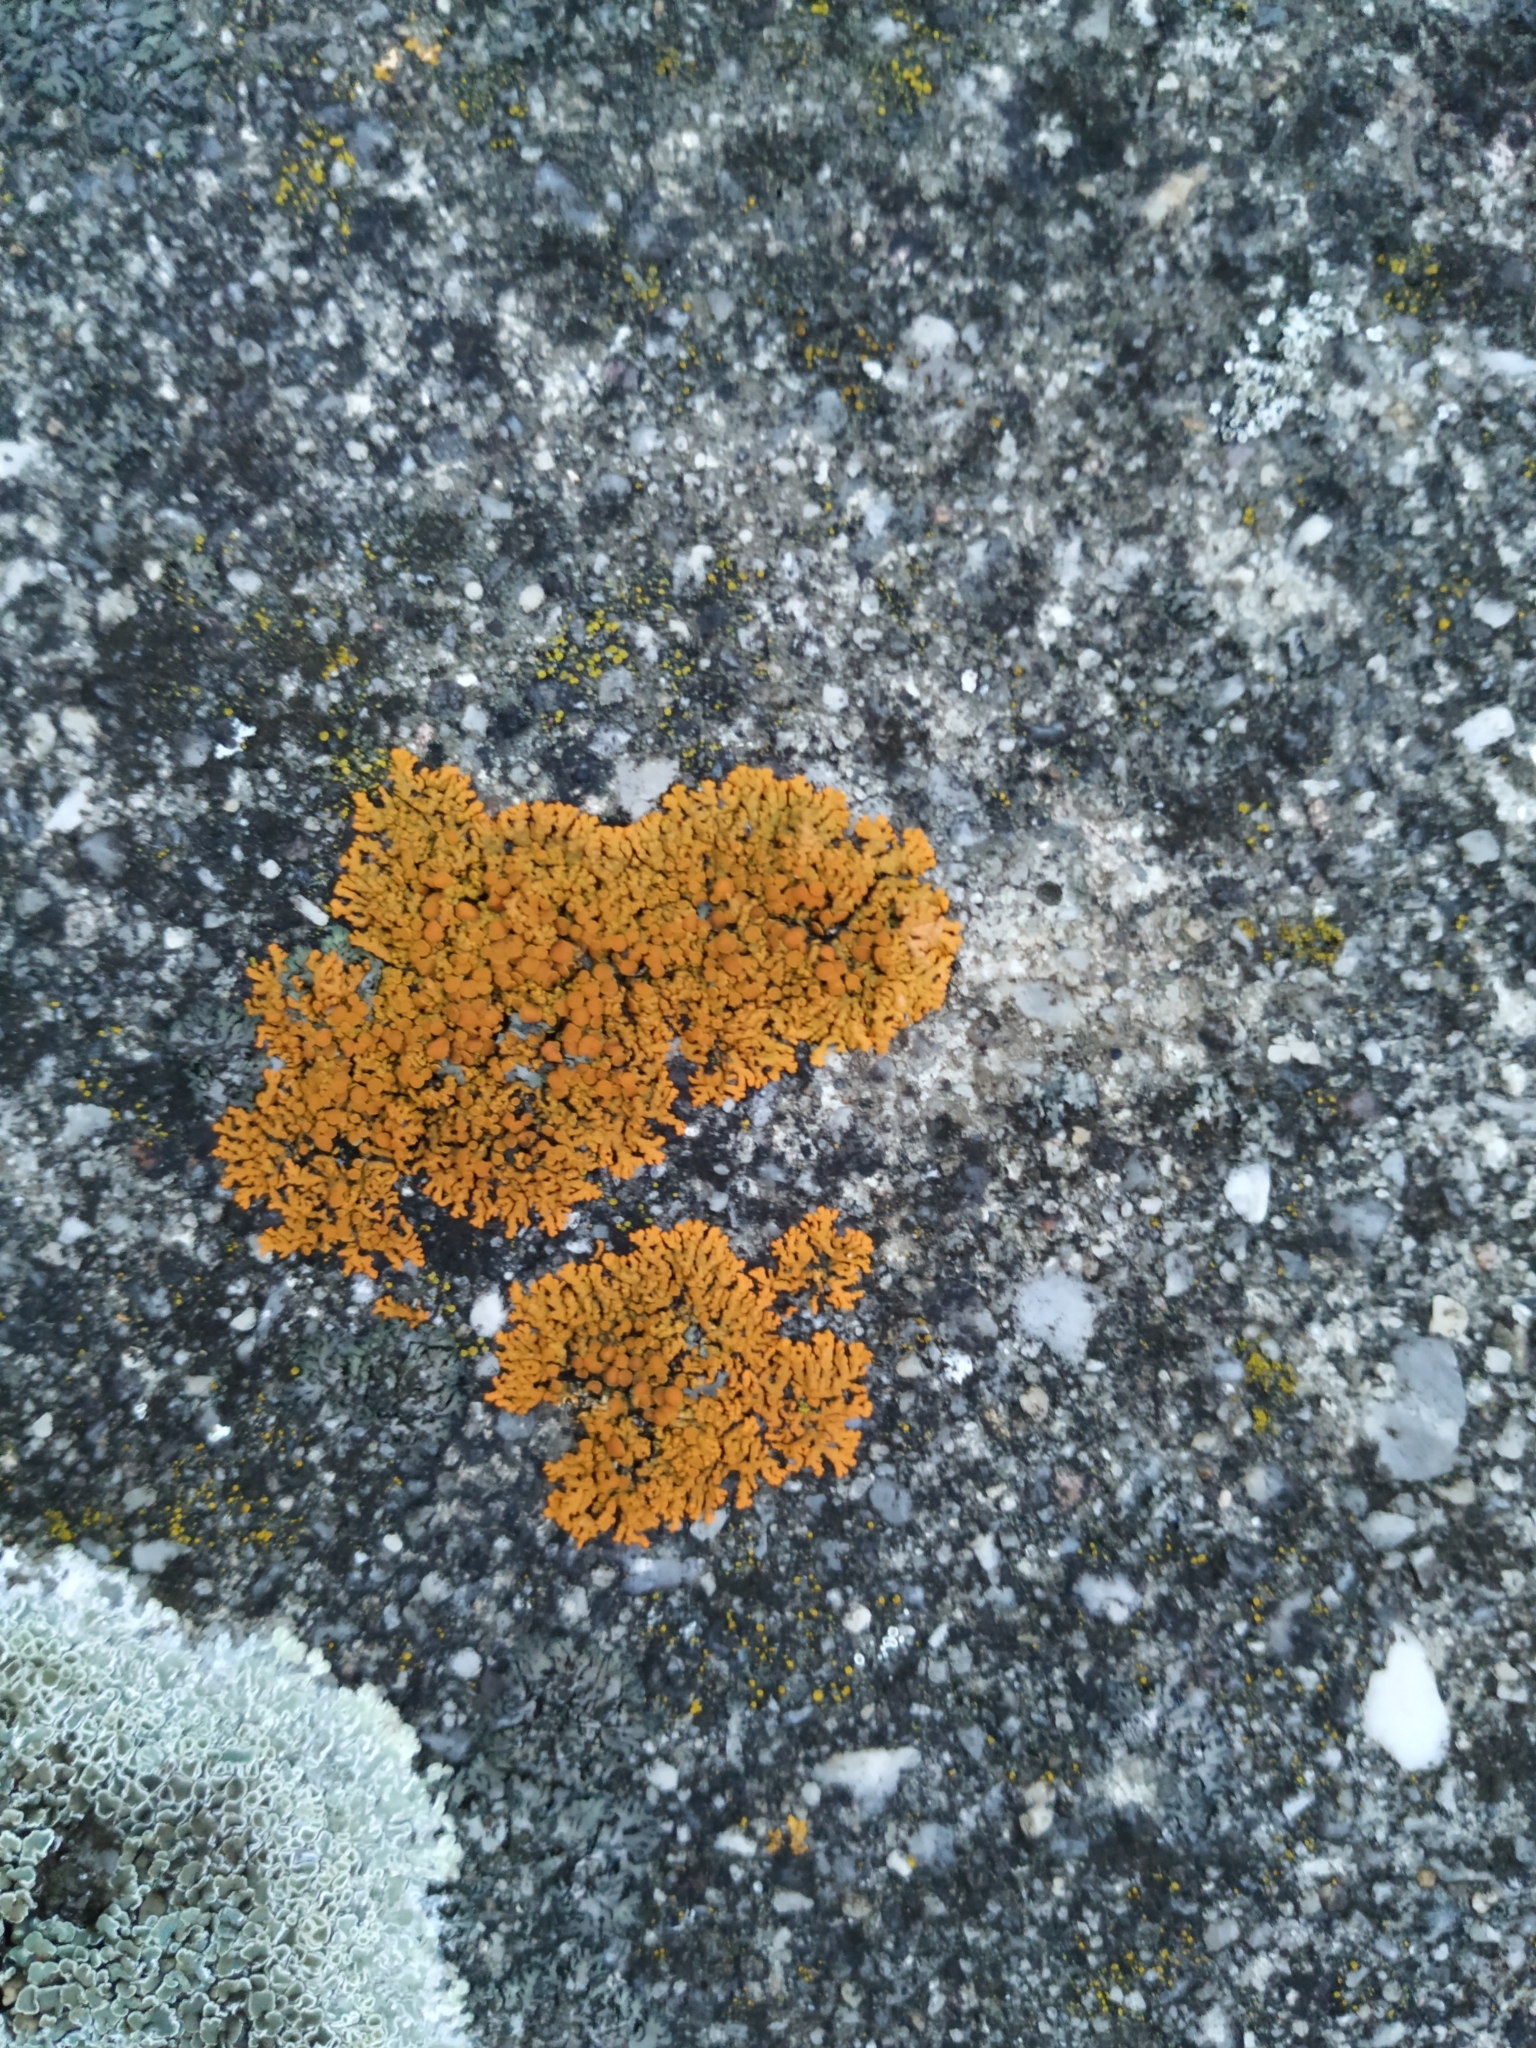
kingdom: Fungi
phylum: Ascomycota
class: Lecanoromycetes
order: Teloschistales
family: Teloschistaceae
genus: Xanthoria
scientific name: Xanthoria elegans
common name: Elegant sunburst lichen
